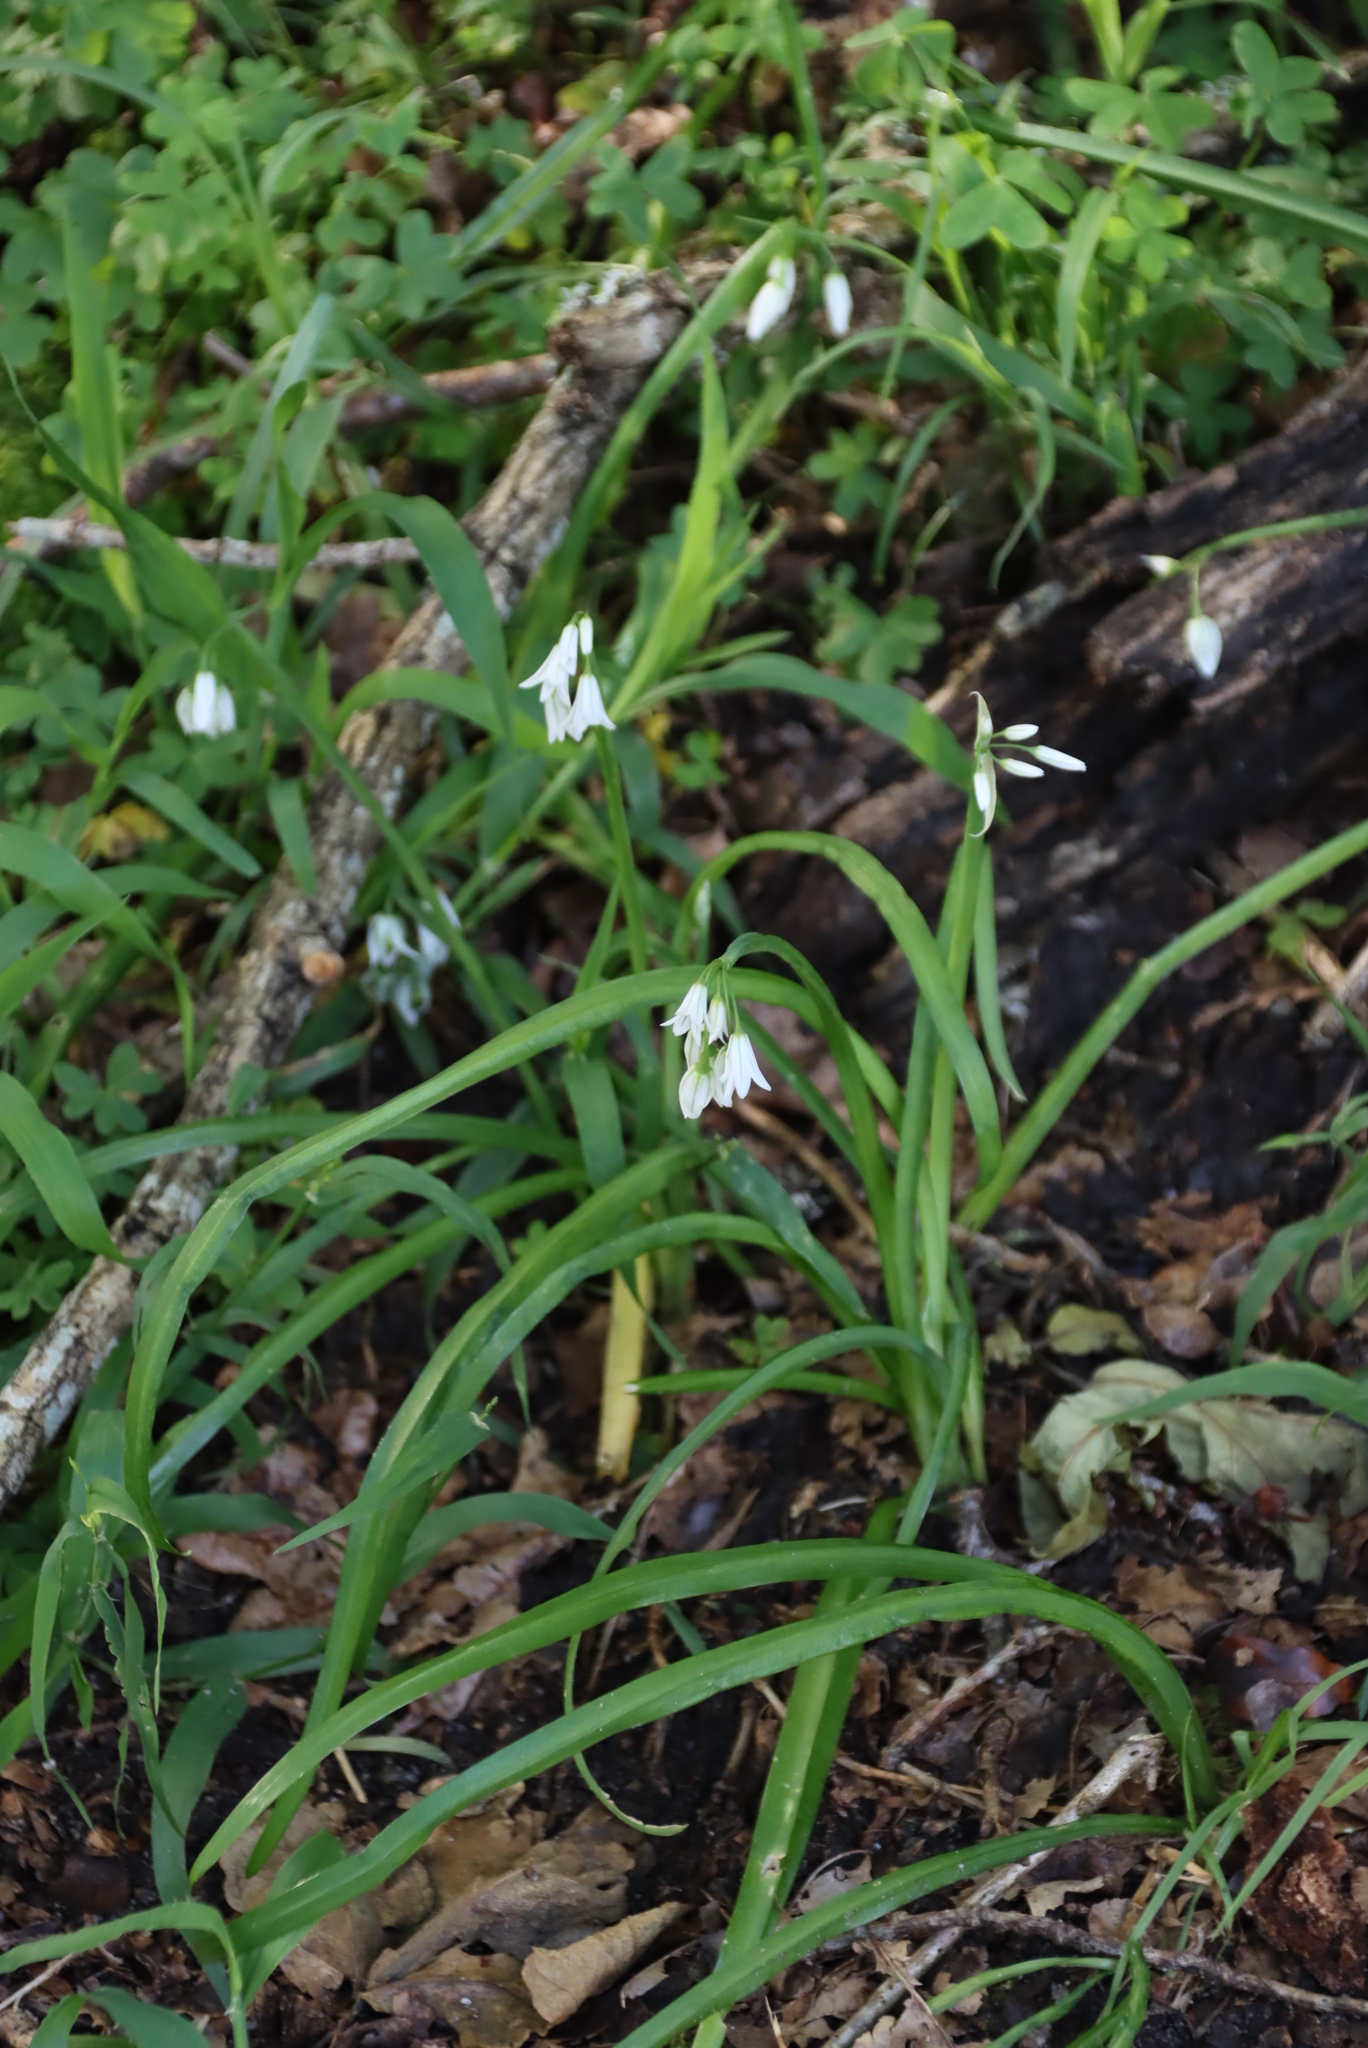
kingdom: Plantae
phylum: Tracheophyta
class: Liliopsida
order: Asparagales
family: Amaryllidaceae
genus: Allium
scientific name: Allium triquetrum
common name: Three-cornered garlic
